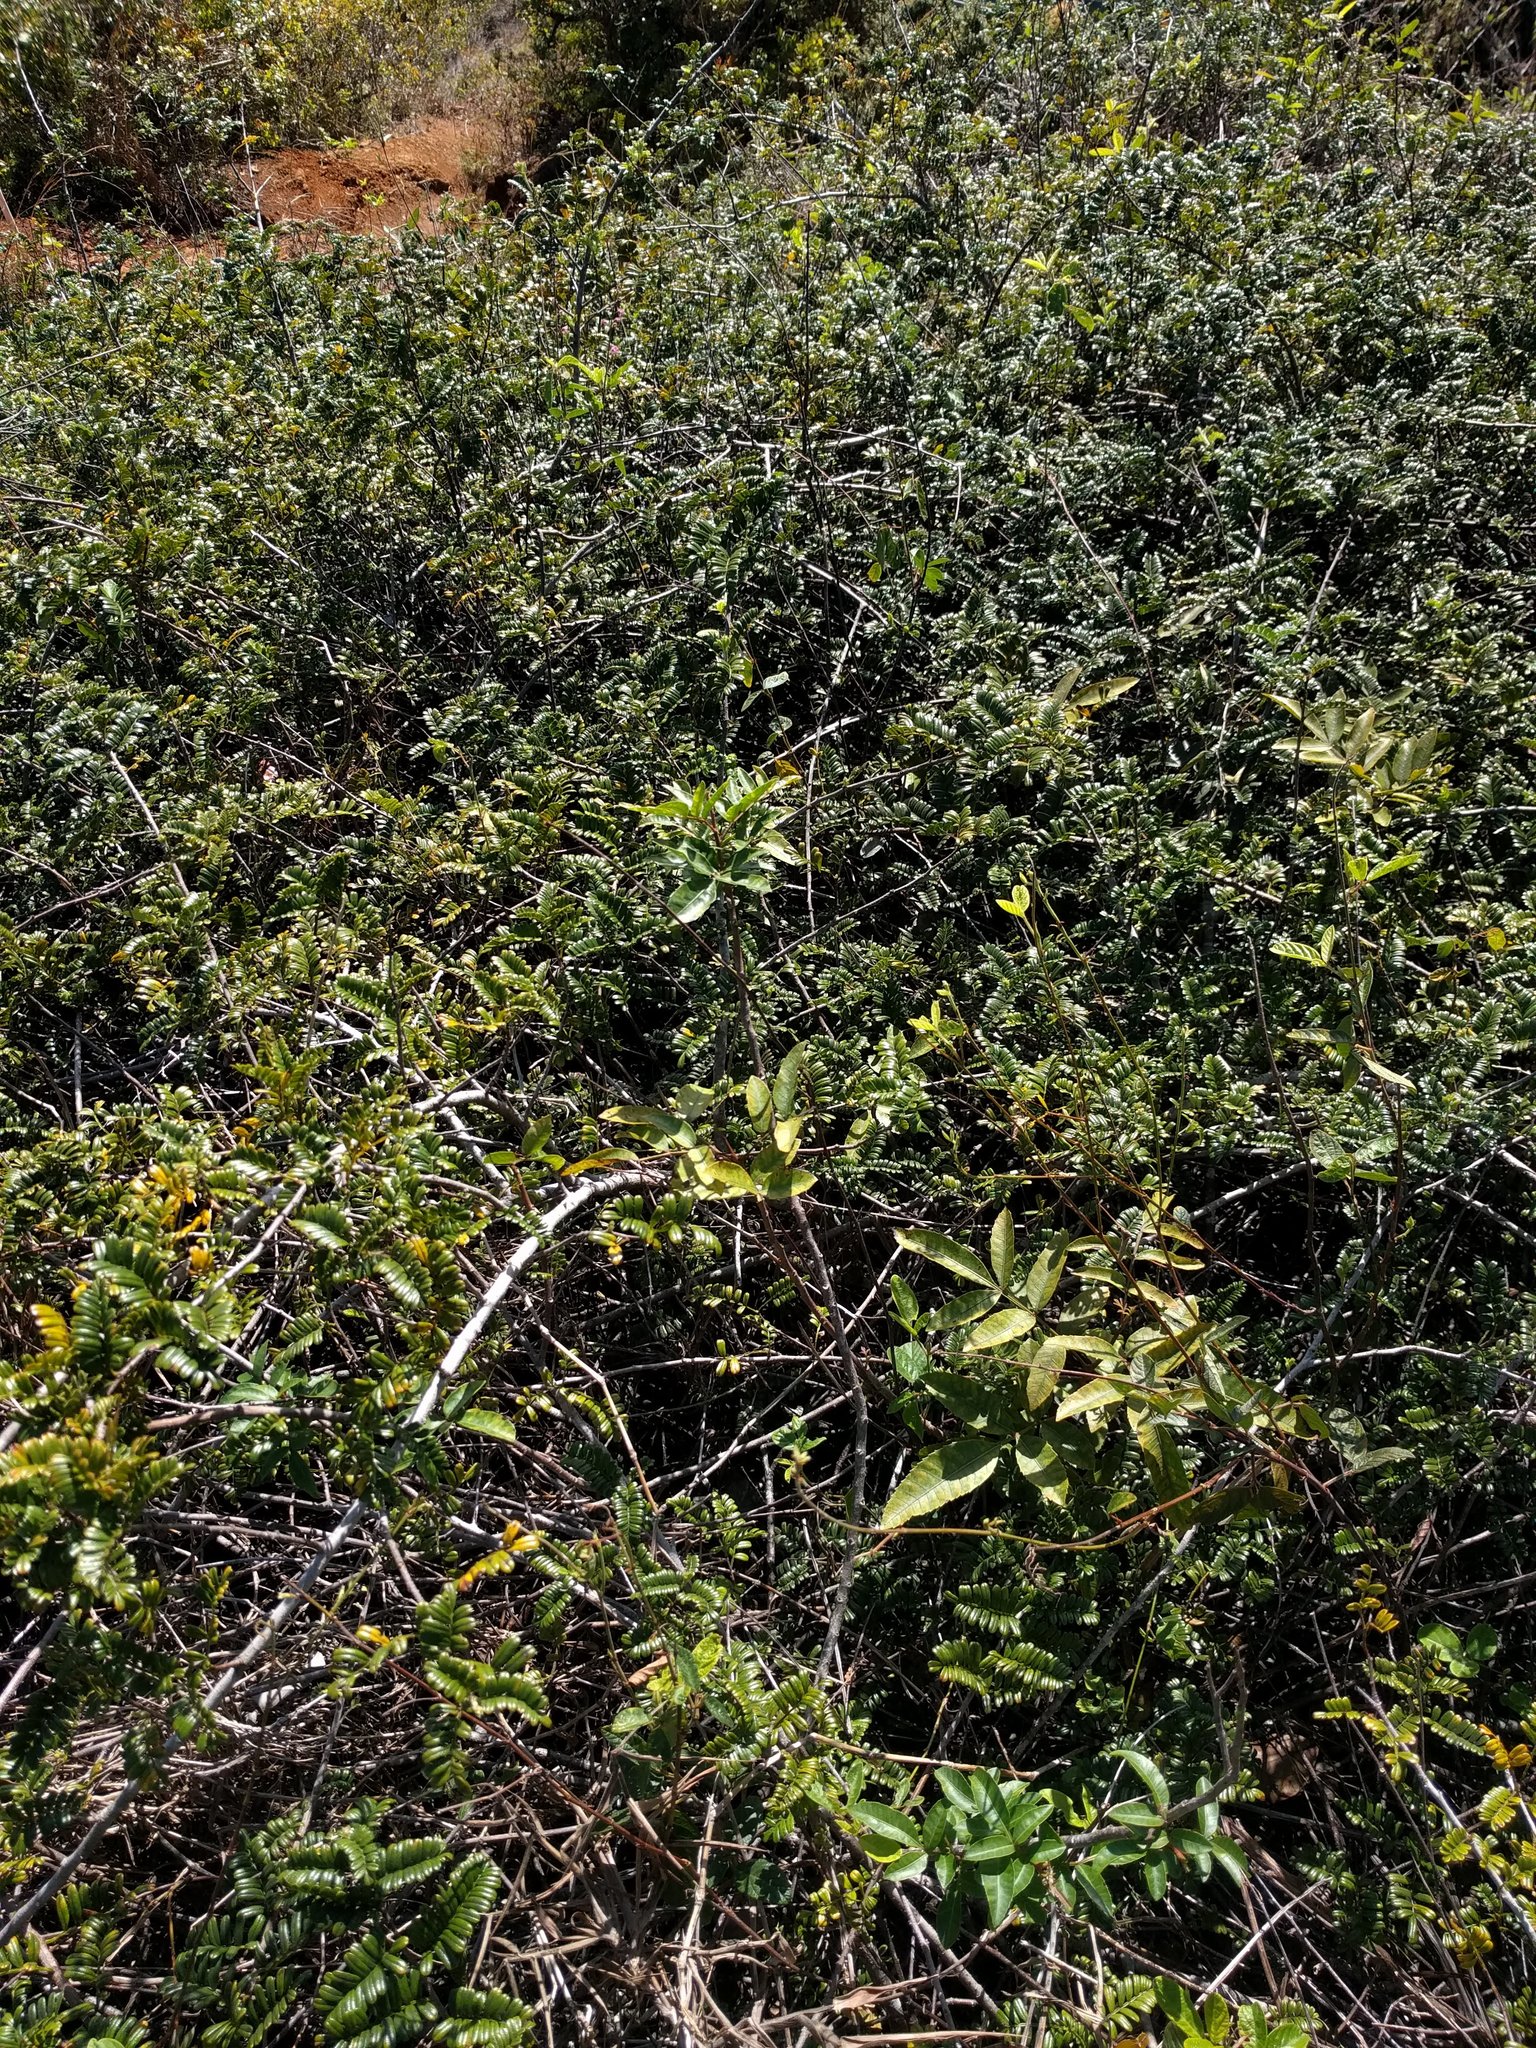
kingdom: Plantae
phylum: Tracheophyta
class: Magnoliopsida
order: Rosales
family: Rosaceae
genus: Osteomeles
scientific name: Osteomeles anthyllidifolia
